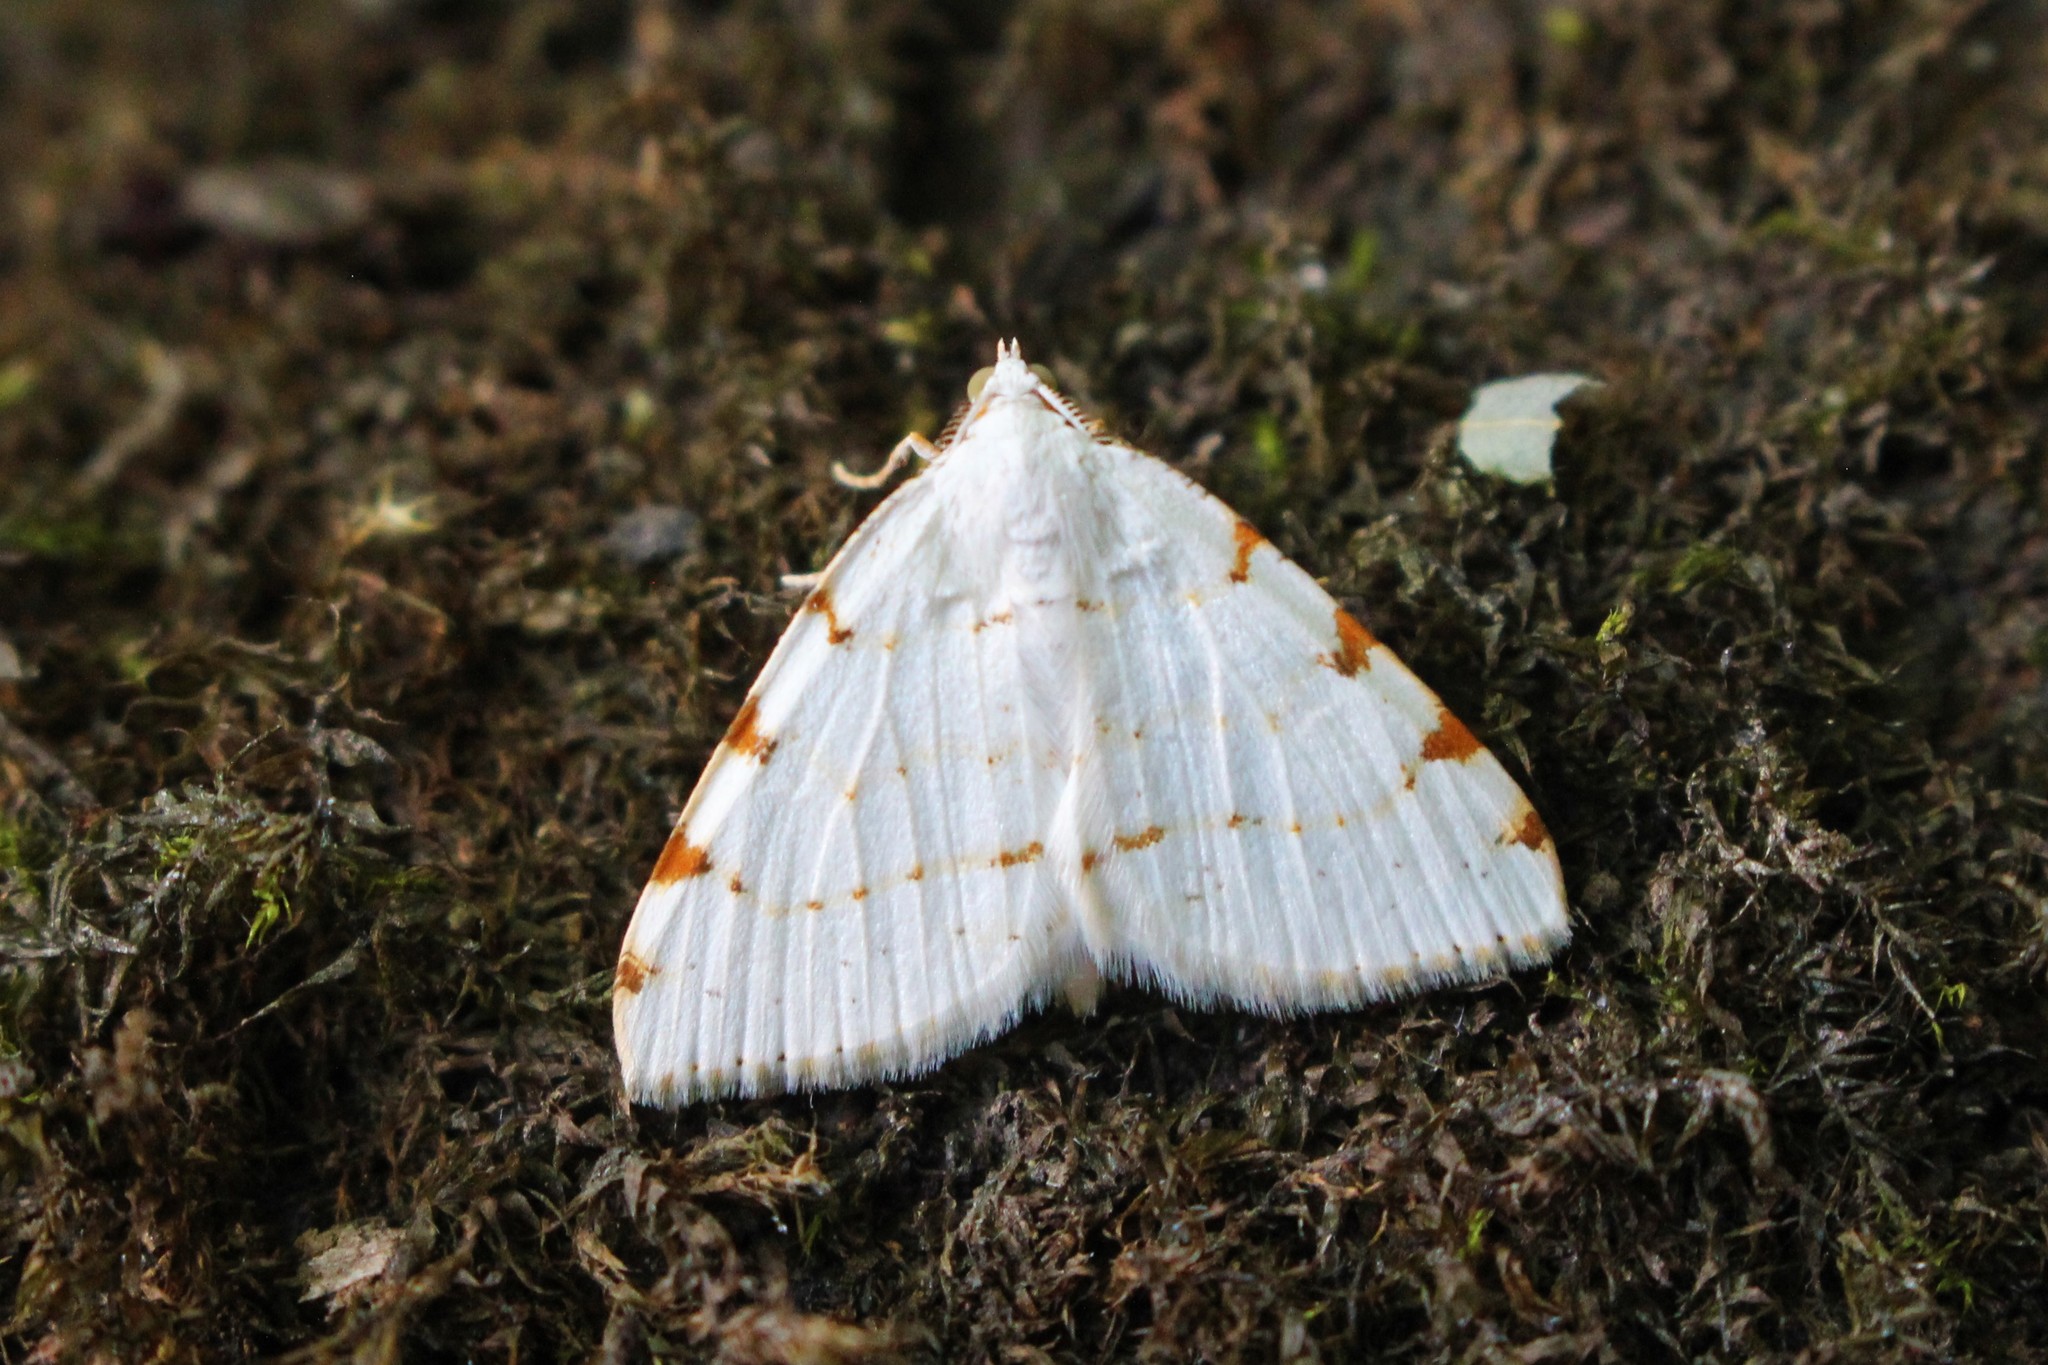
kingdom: Animalia
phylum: Arthropoda
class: Insecta
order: Lepidoptera
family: Geometridae
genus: Macaria
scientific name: Macaria pustularia
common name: Lesser maple spanworm moth
